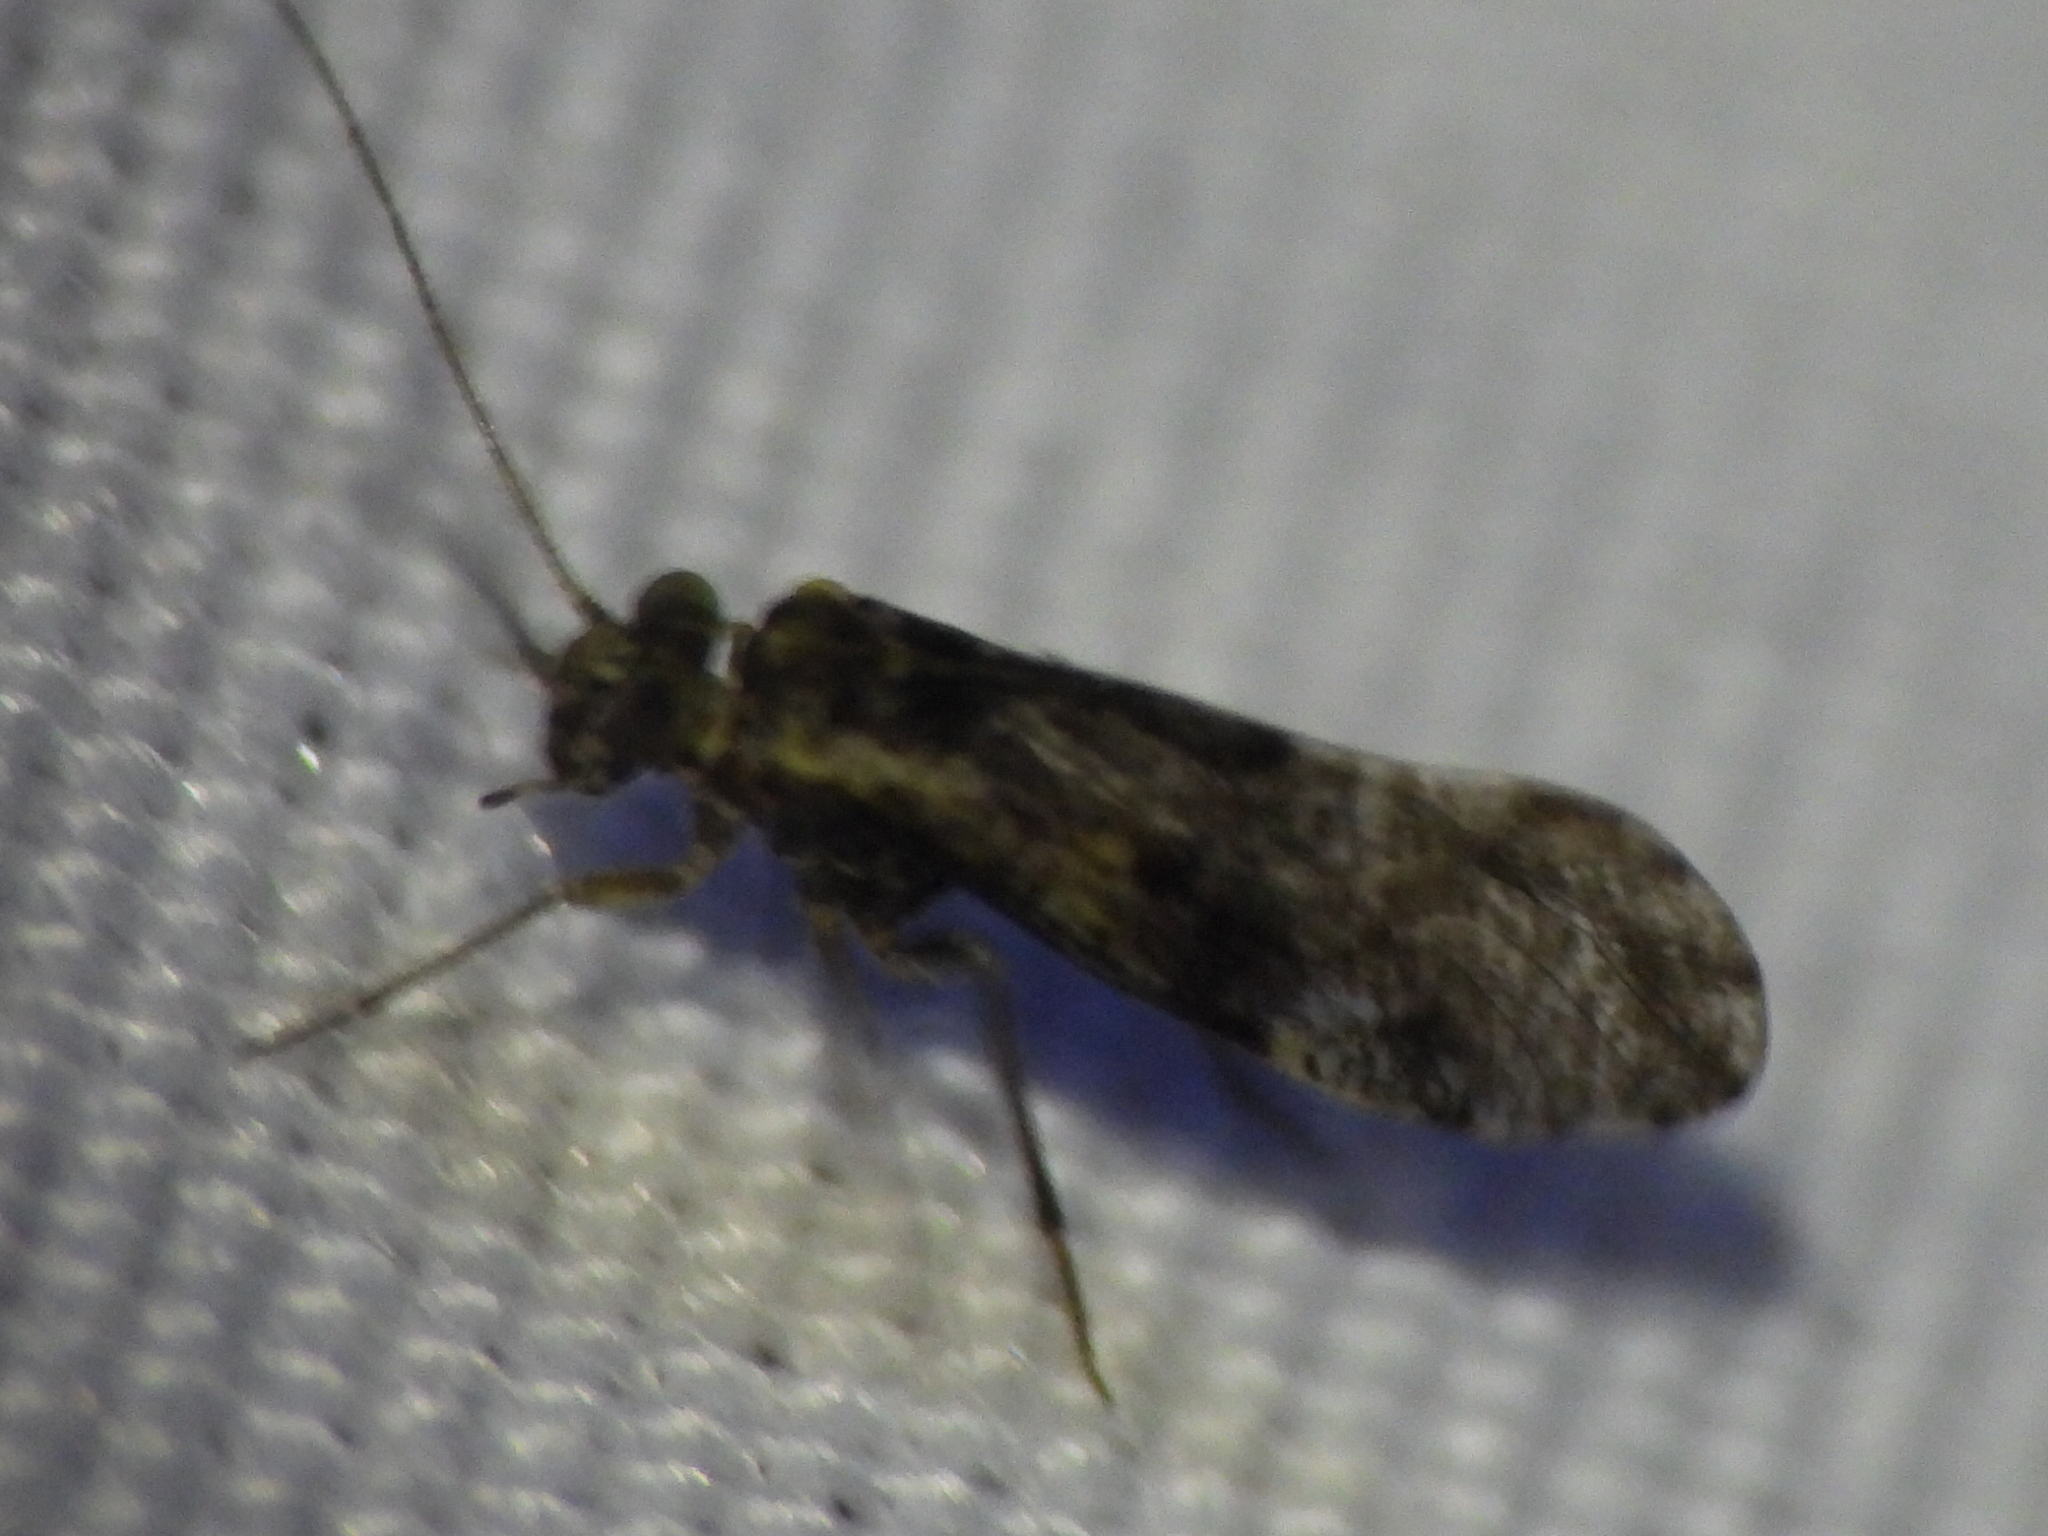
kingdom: Animalia
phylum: Arthropoda
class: Insecta
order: Psocodea
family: Psocidae
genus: Loensia
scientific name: Loensia moesta
